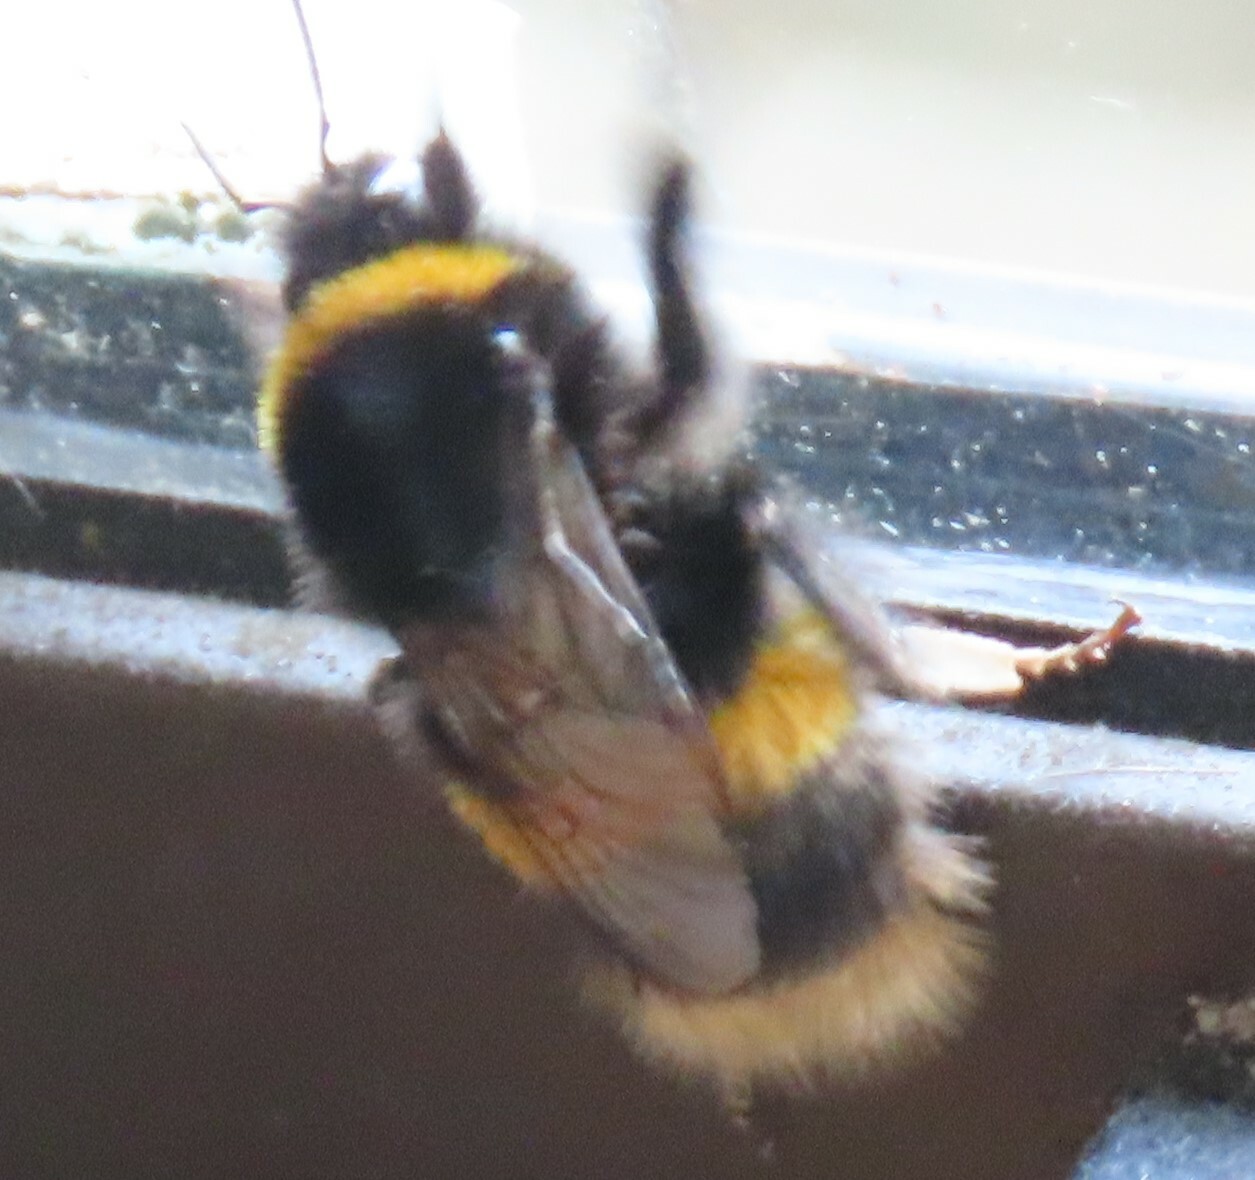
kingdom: Animalia
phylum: Arthropoda
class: Insecta
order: Hymenoptera
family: Apidae
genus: Bombus
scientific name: Bombus terrestris
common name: Buff-tailed bumblebee
